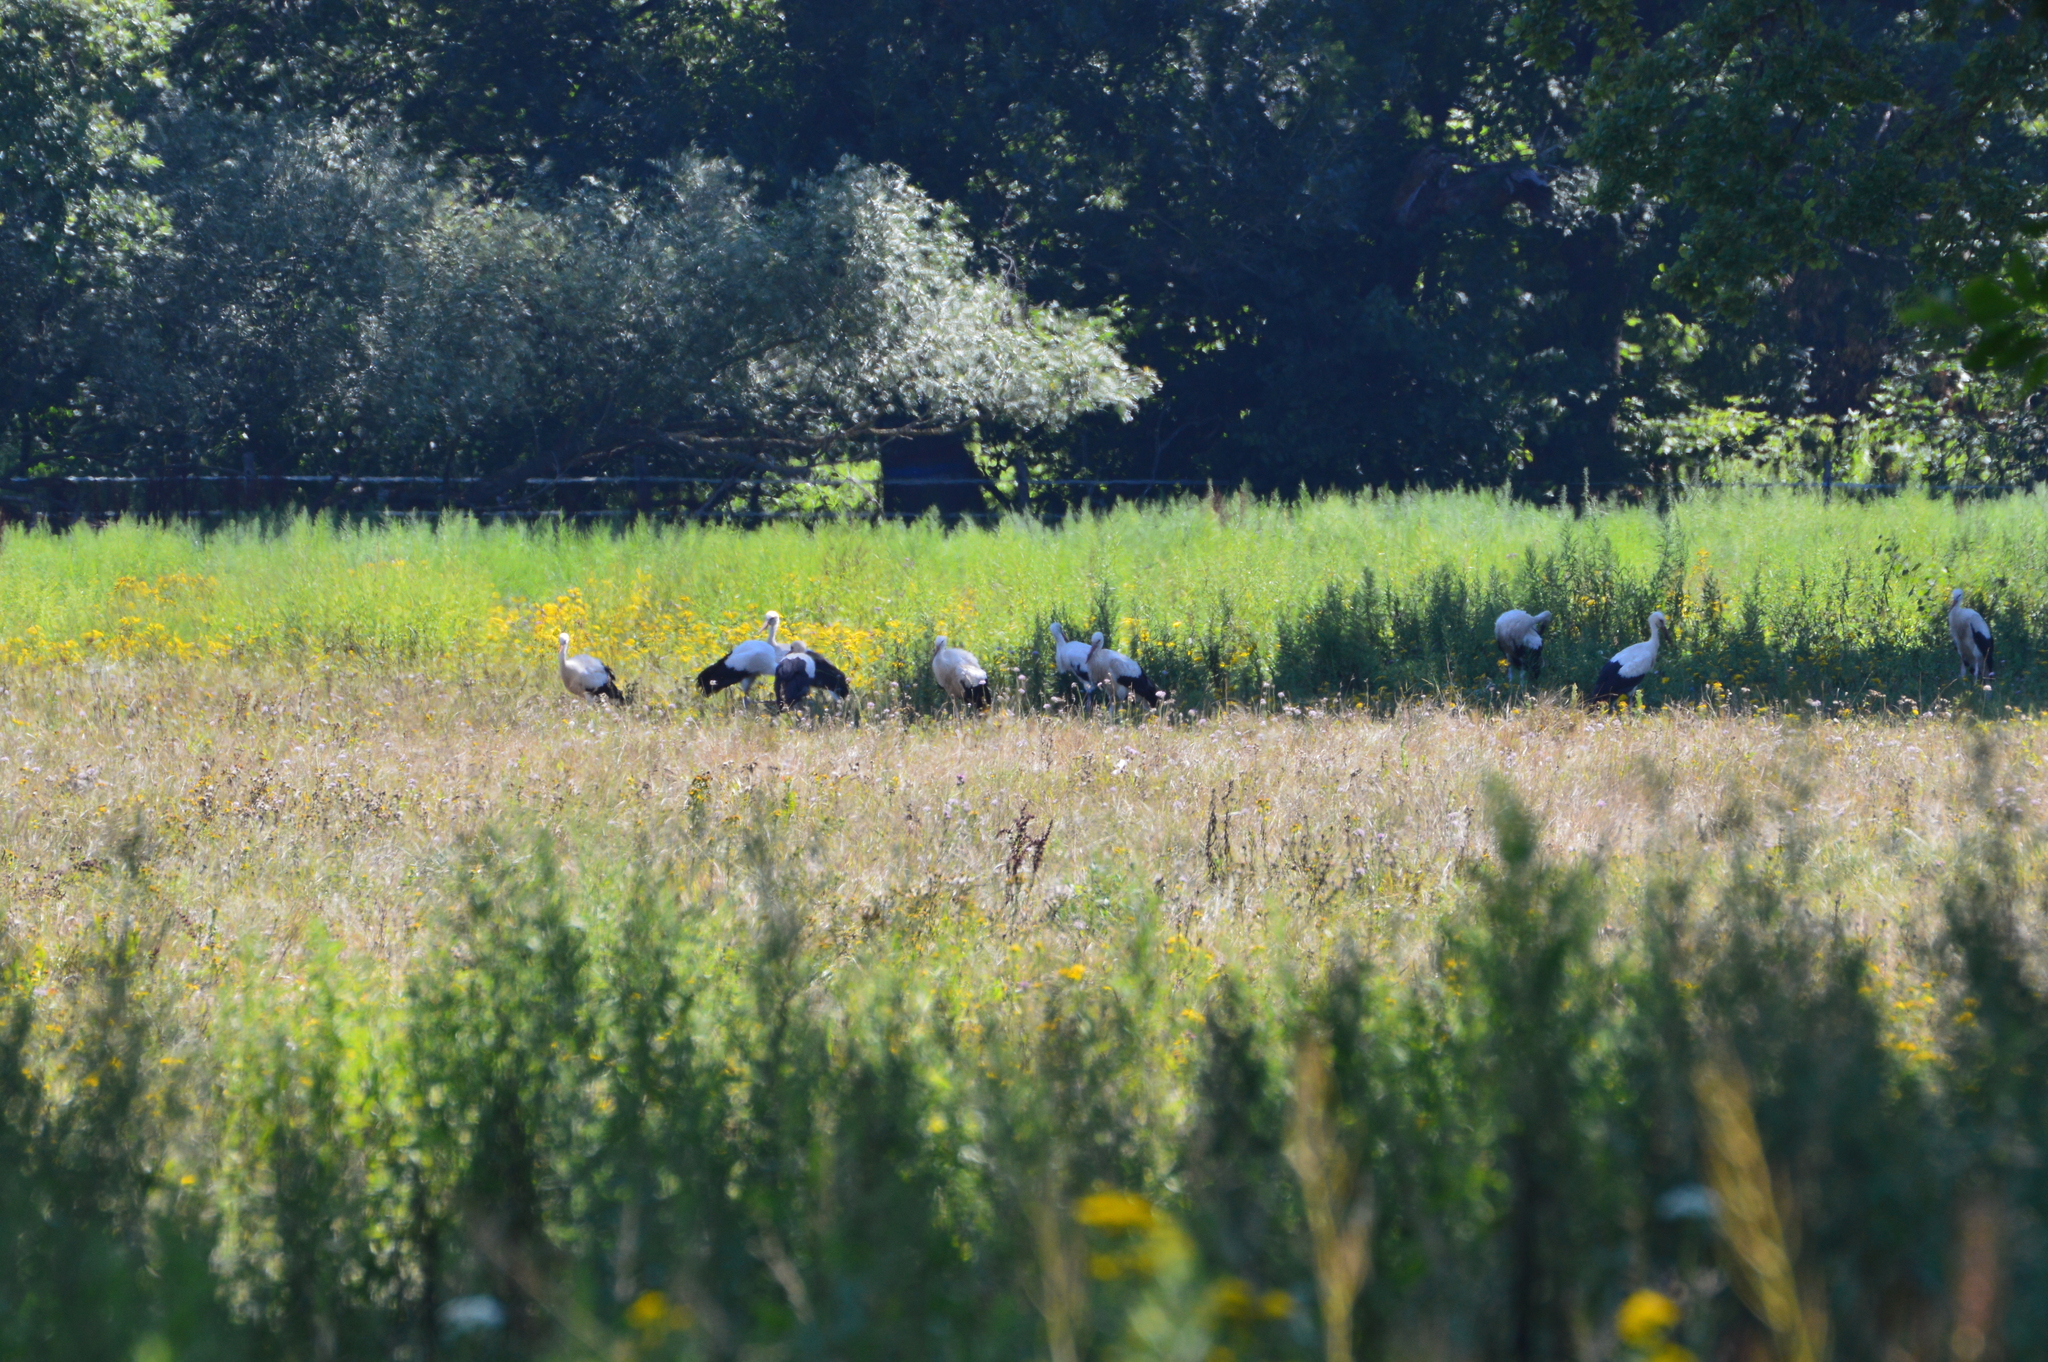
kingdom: Animalia
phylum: Chordata
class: Aves
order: Ciconiiformes
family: Ciconiidae
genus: Ciconia
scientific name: Ciconia ciconia
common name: White stork
